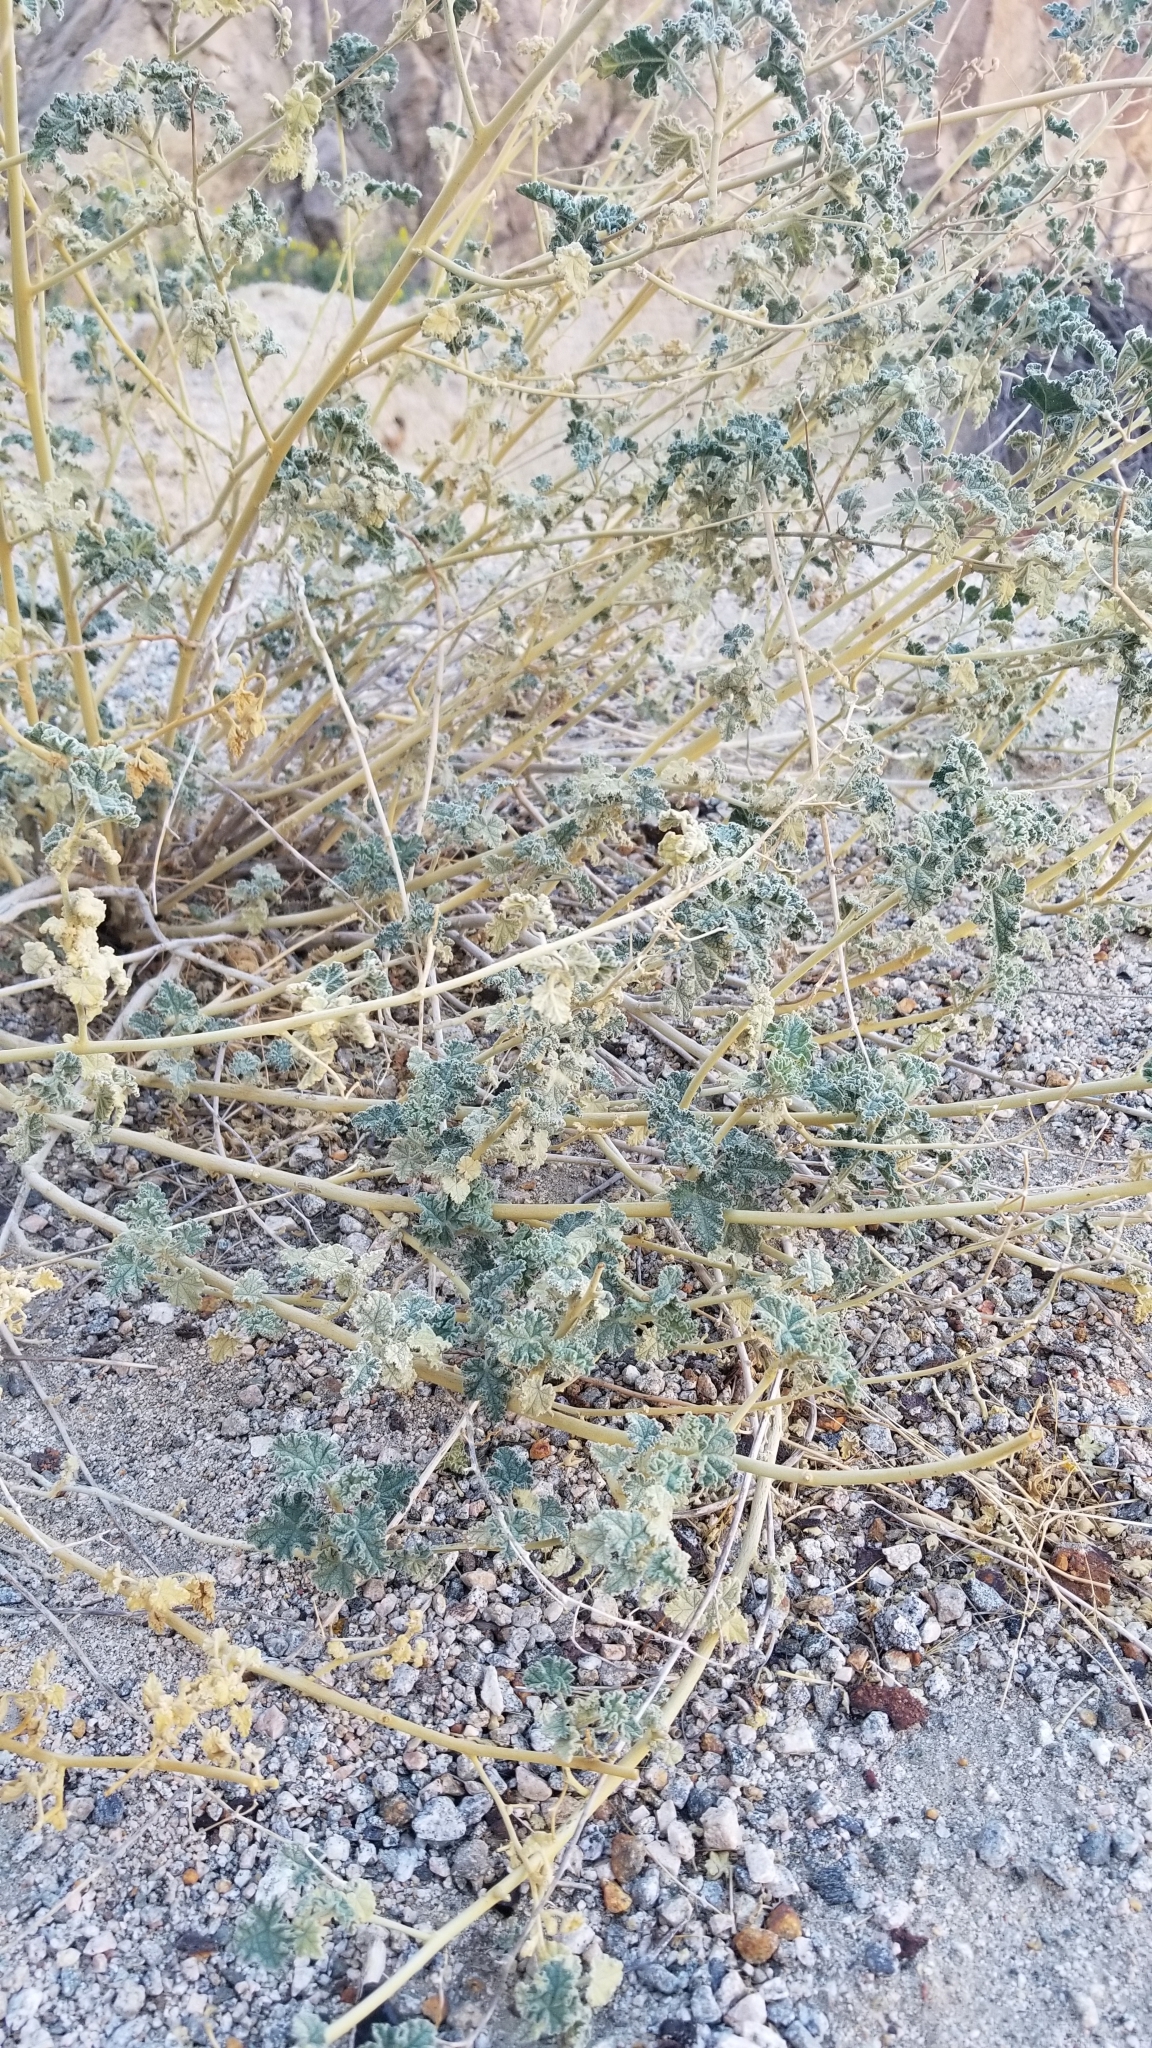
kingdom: Plantae
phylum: Tracheophyta
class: Magnoliopsida
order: Malvales
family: Malvaceae
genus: Sphaeralcea
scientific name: Sphaeralcea ambigua
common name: Apricot globe-mallow
